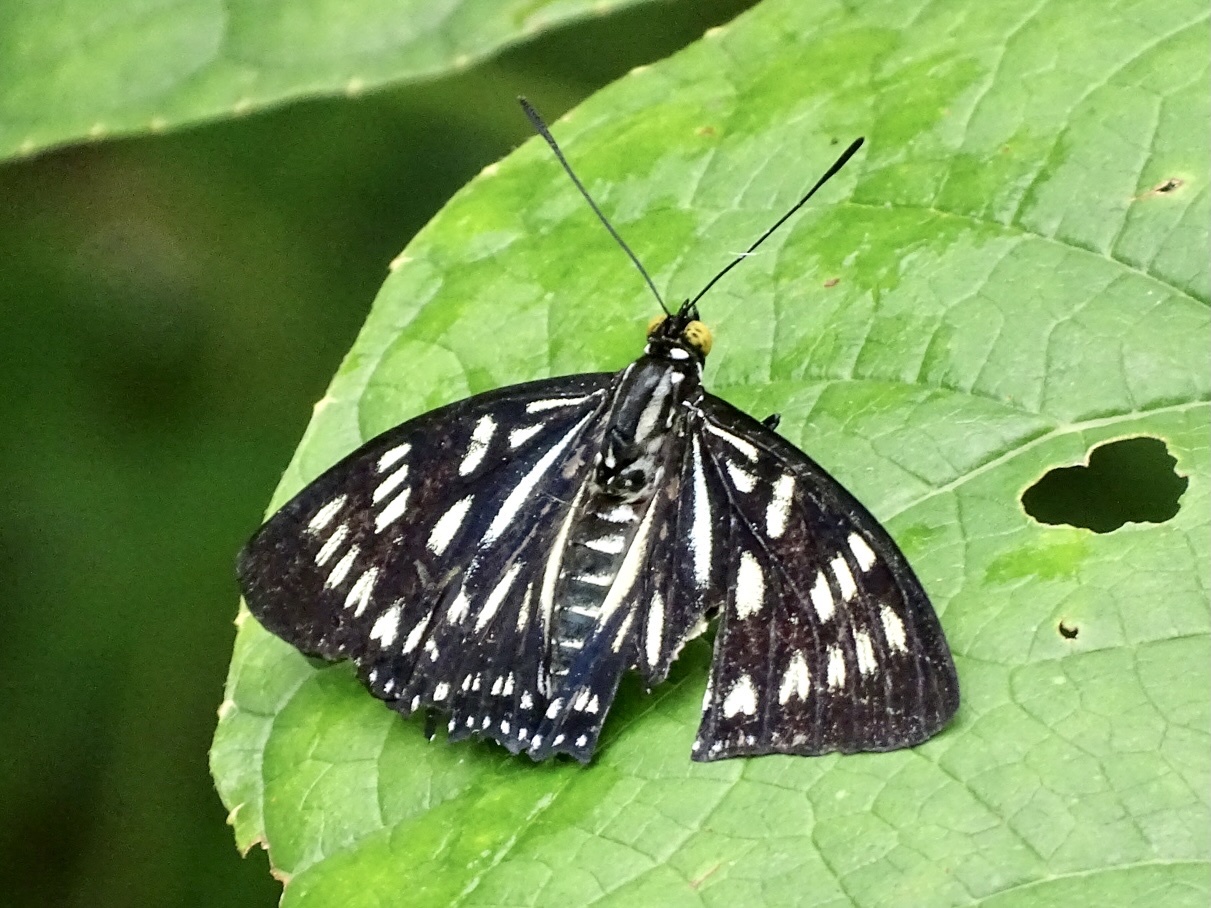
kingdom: Animalia
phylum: Arthropoda
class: Insecta
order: Lepidoptera
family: Nymphalidae
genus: Euripus
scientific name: Euripus nyctelius
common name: Courtesan
